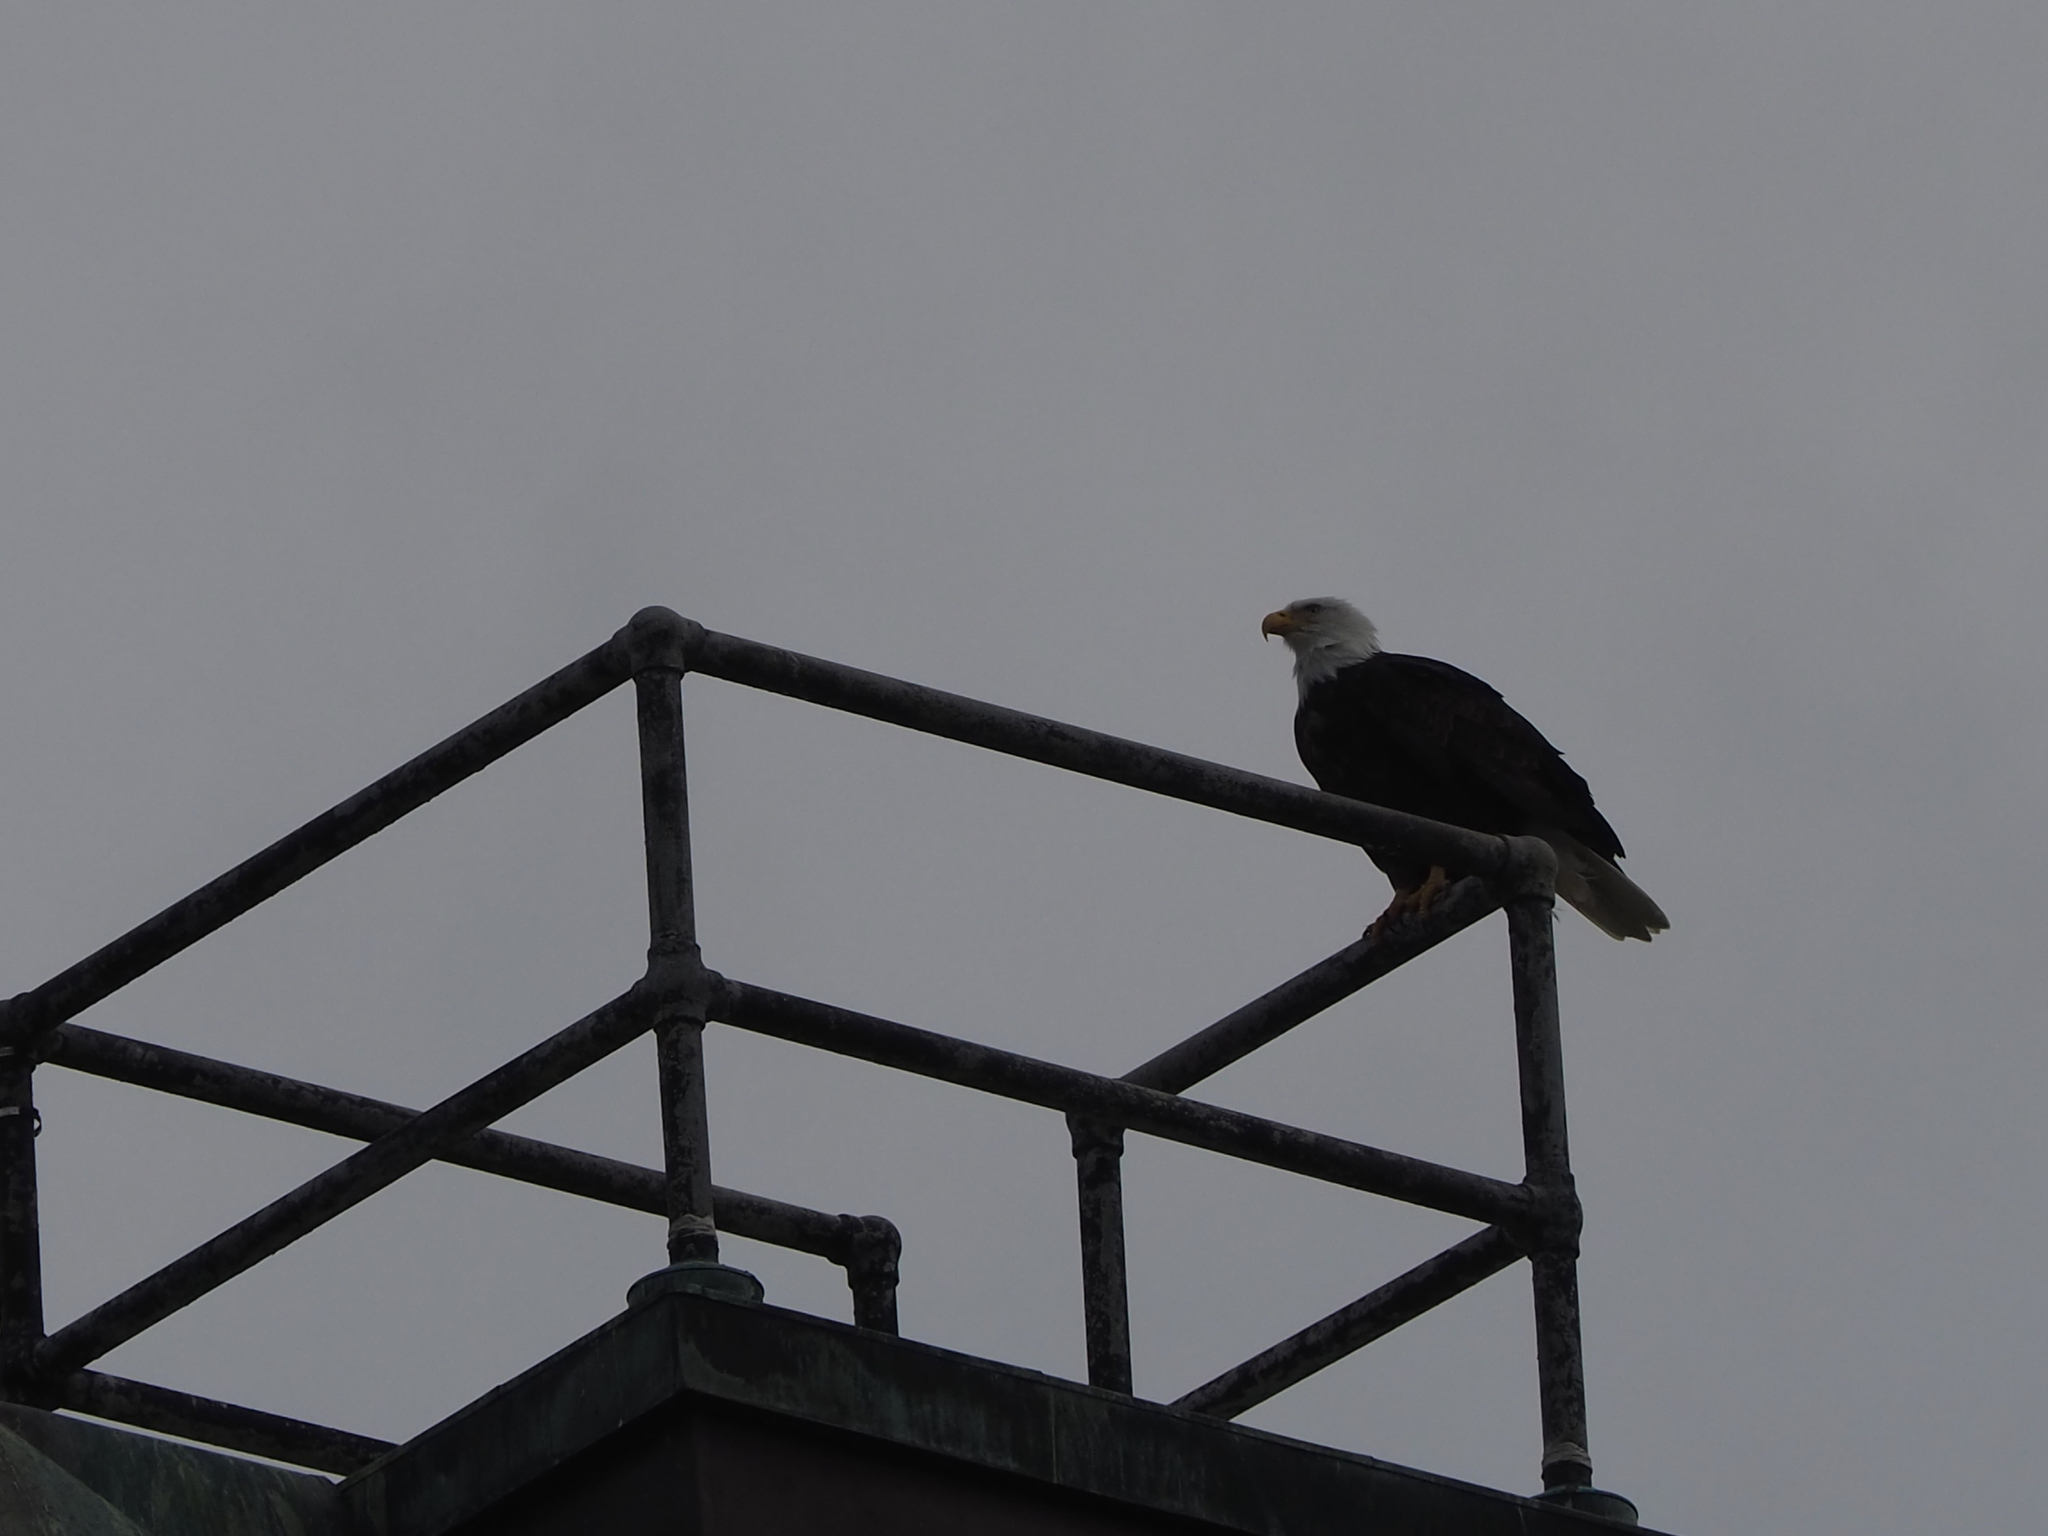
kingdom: Animalia
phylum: Chordata
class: Aves
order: Accipitriformes
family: Accipitridae
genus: Haliaeetus
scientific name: Haliaeetus leucocephalus
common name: Bald eagle
